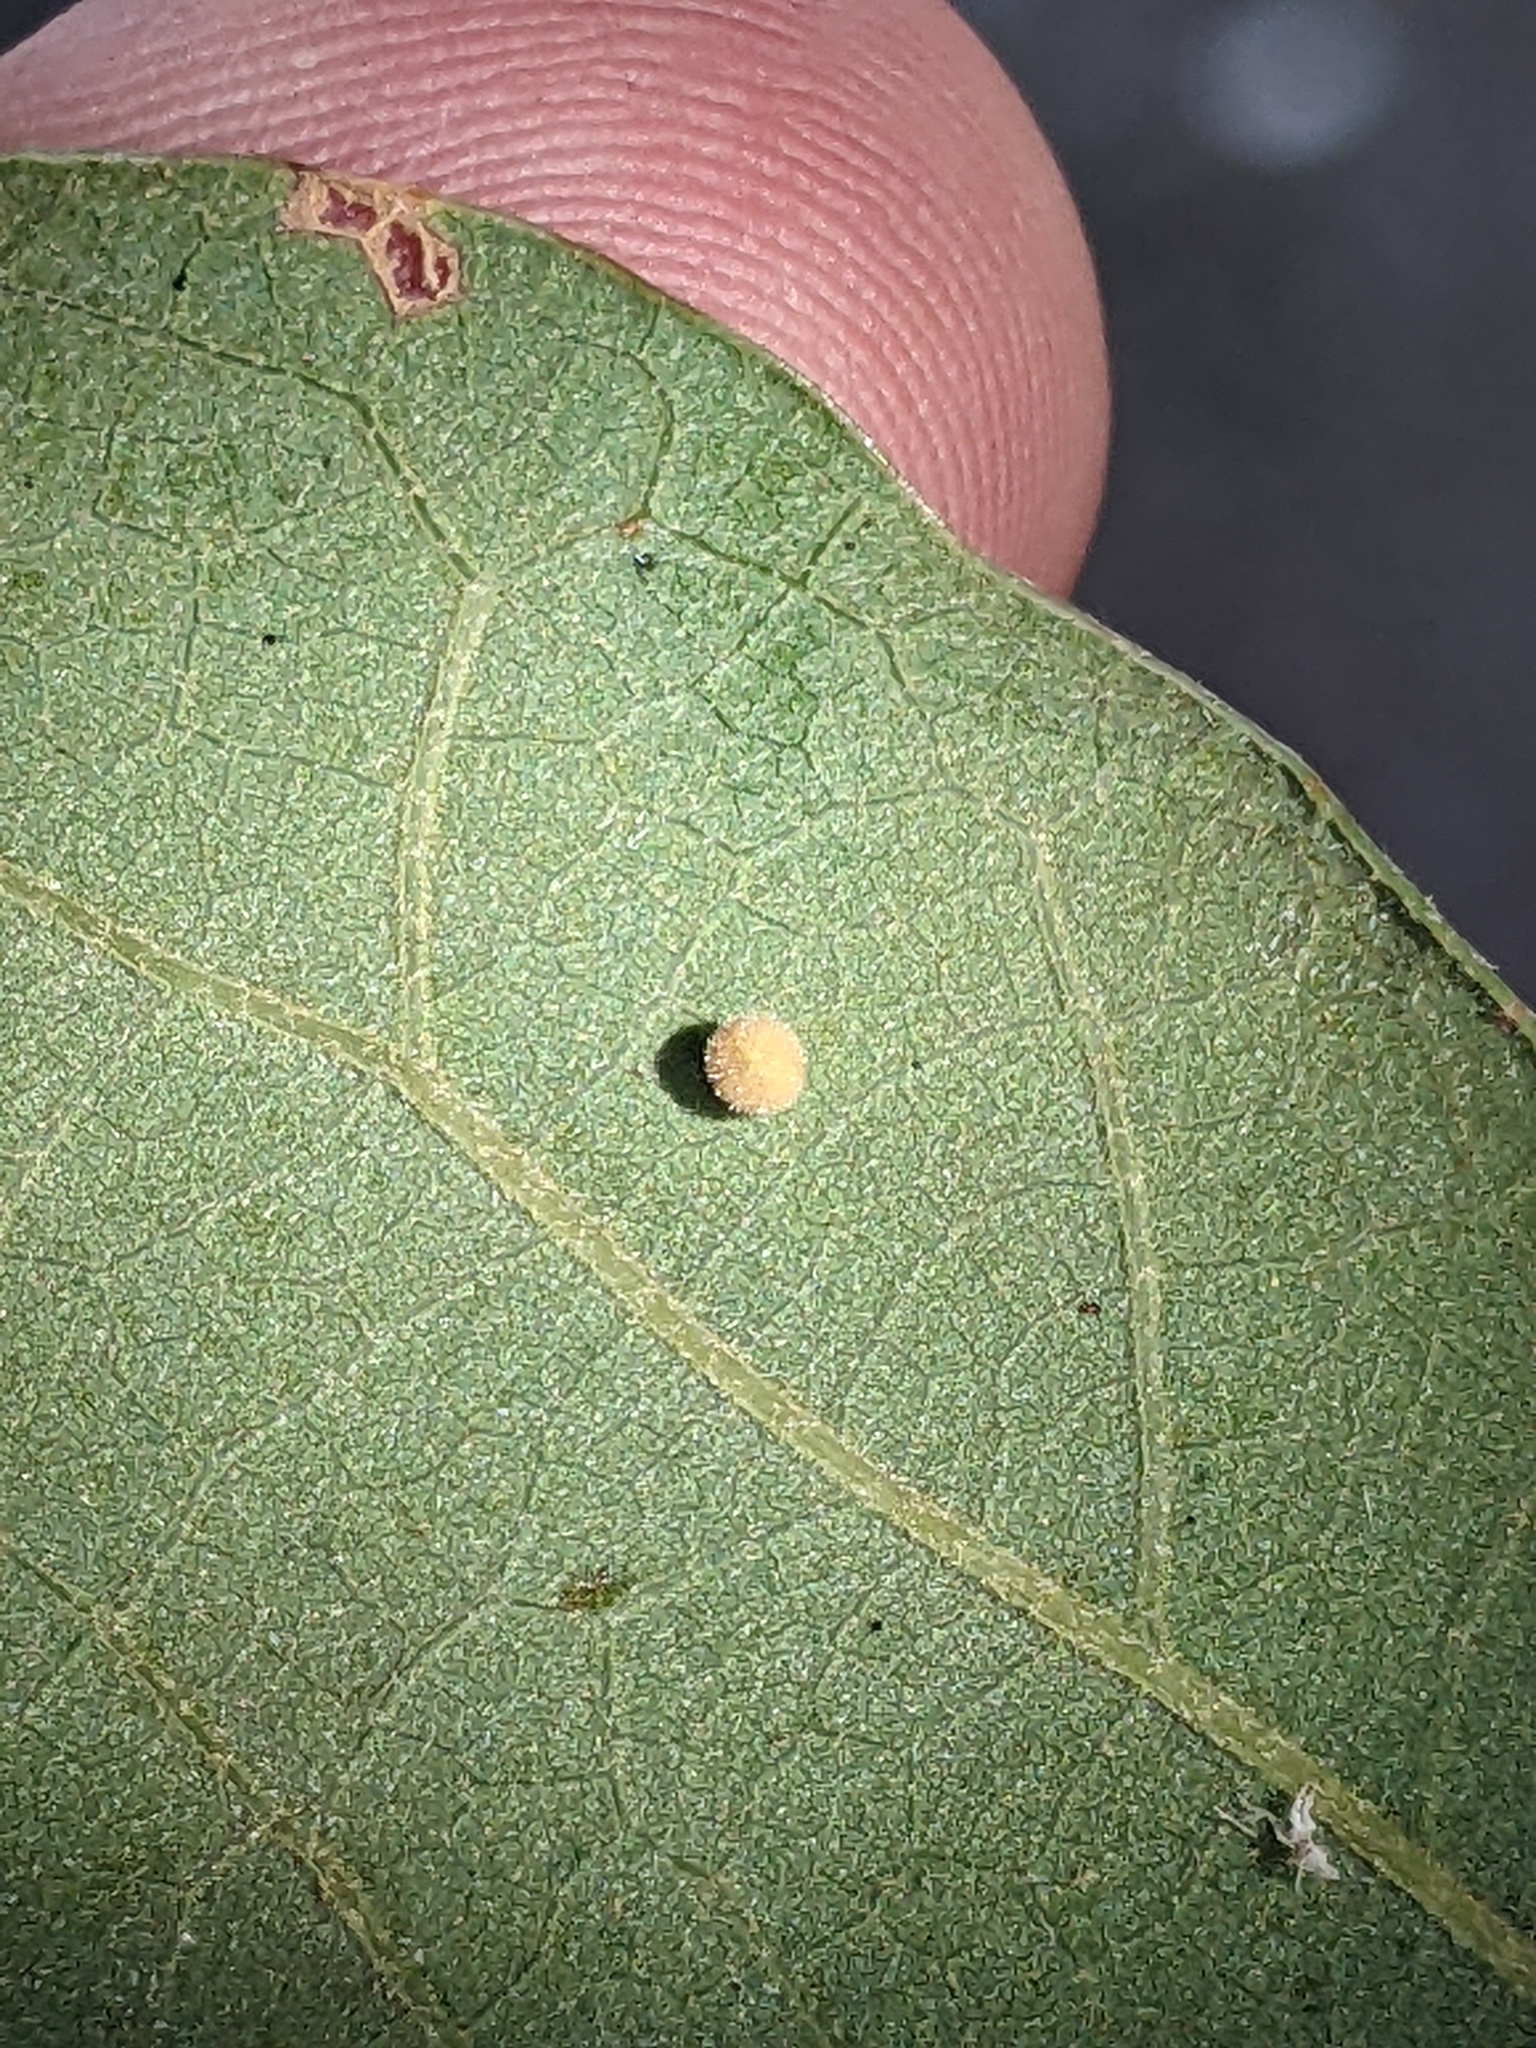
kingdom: Animalia
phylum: Arthropoda
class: Insecta
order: Hymenoptera
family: Cynipidae
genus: Neuroterus
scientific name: Neuroterus saltarius
